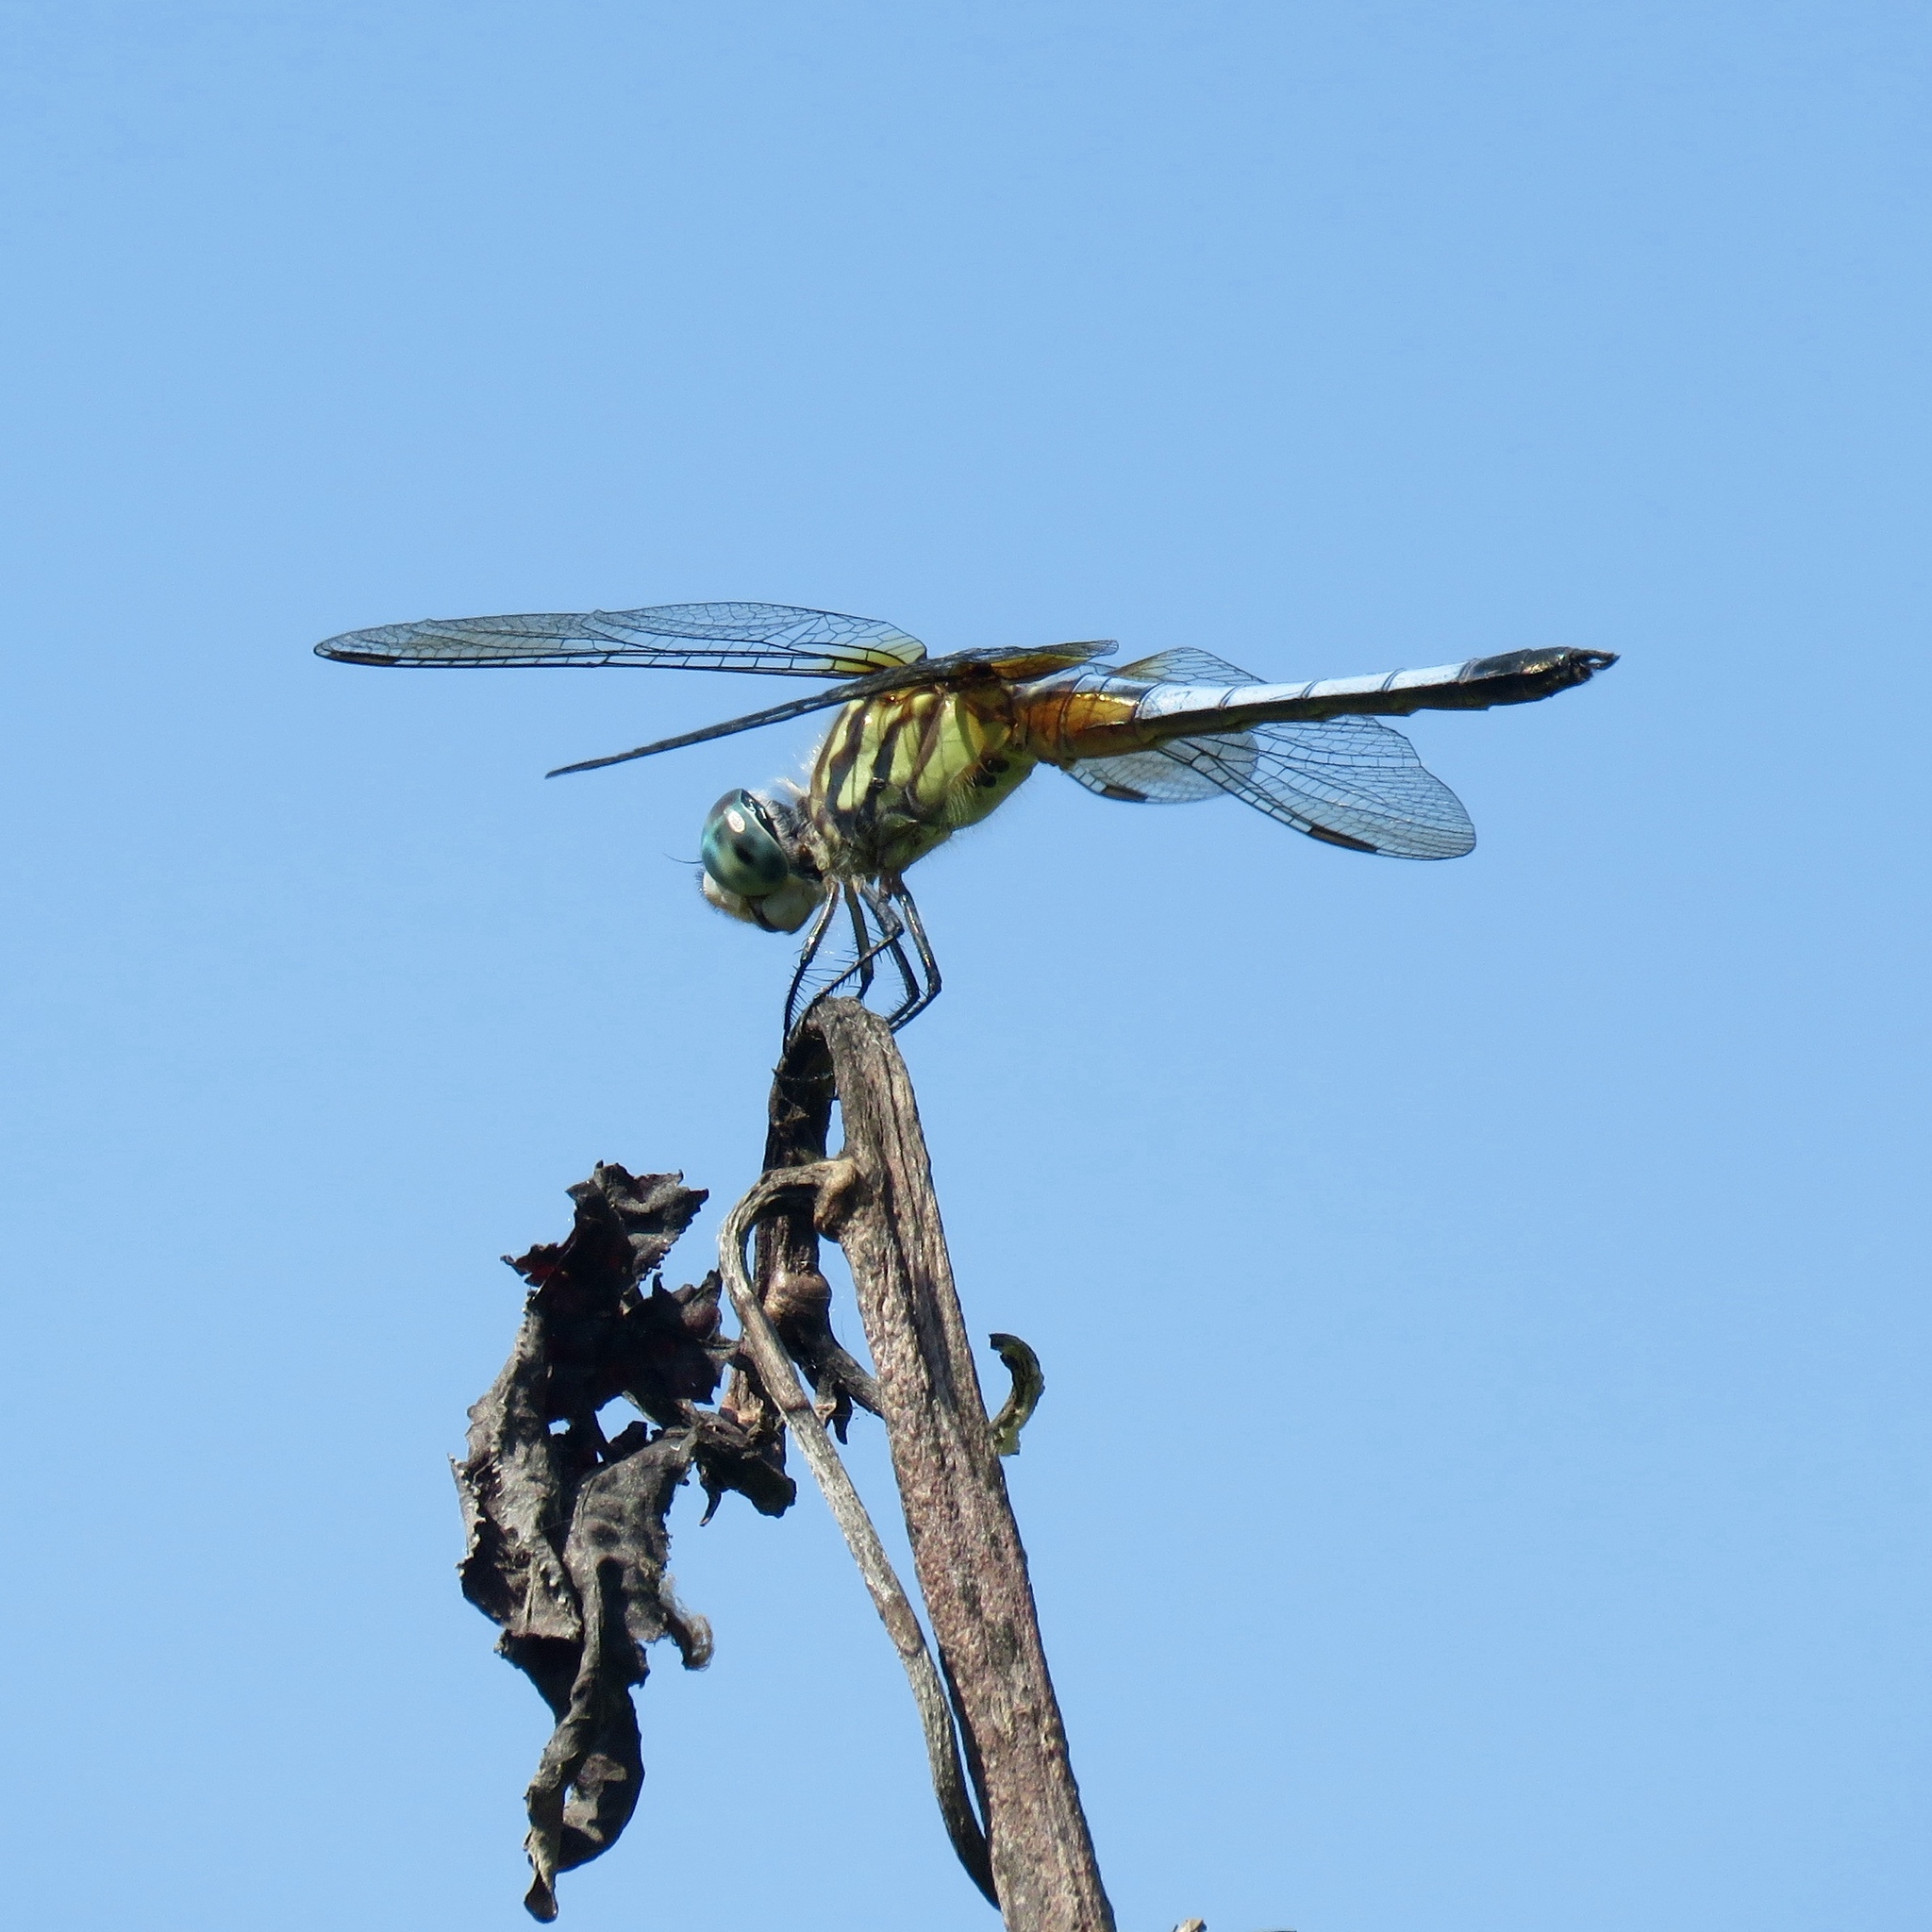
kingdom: Animalia
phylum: Arthropoda
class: Insecta
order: Odonata
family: Libellulidae
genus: Pachydiplax
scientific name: Pachydiplax longipennis
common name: Blue dasher
